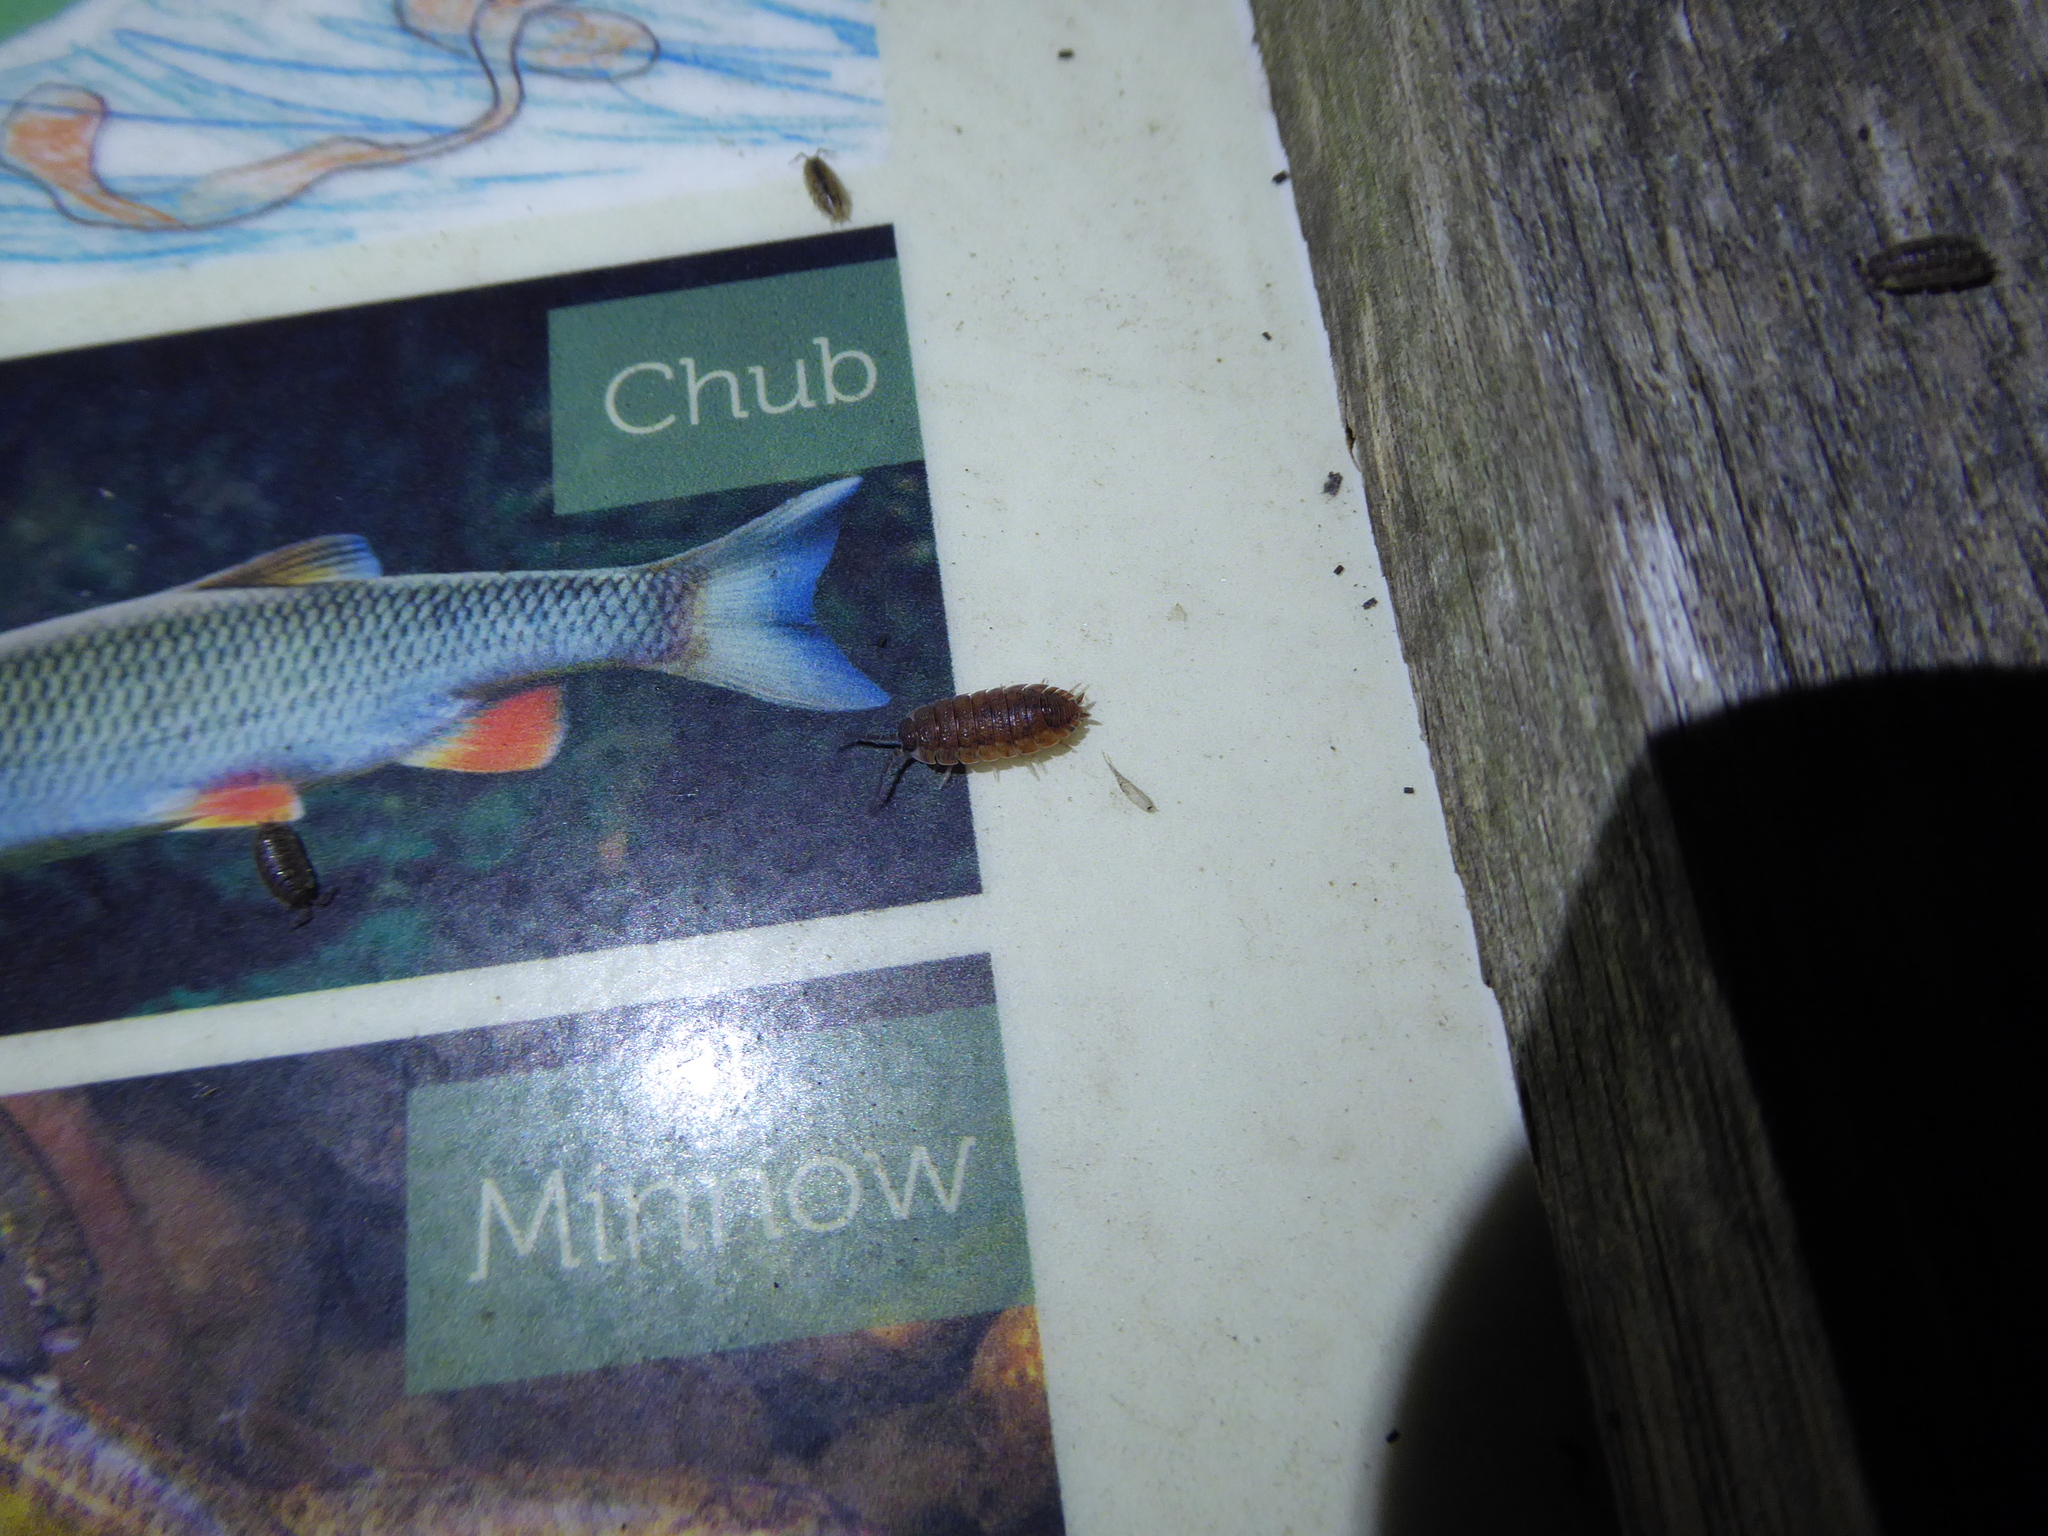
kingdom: Animalia
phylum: Arthropoda
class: Malacostraca
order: Isopoda
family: Porcellionidae
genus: Porcellio
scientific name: Porcellio scaber
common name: Common rough woodlouse
